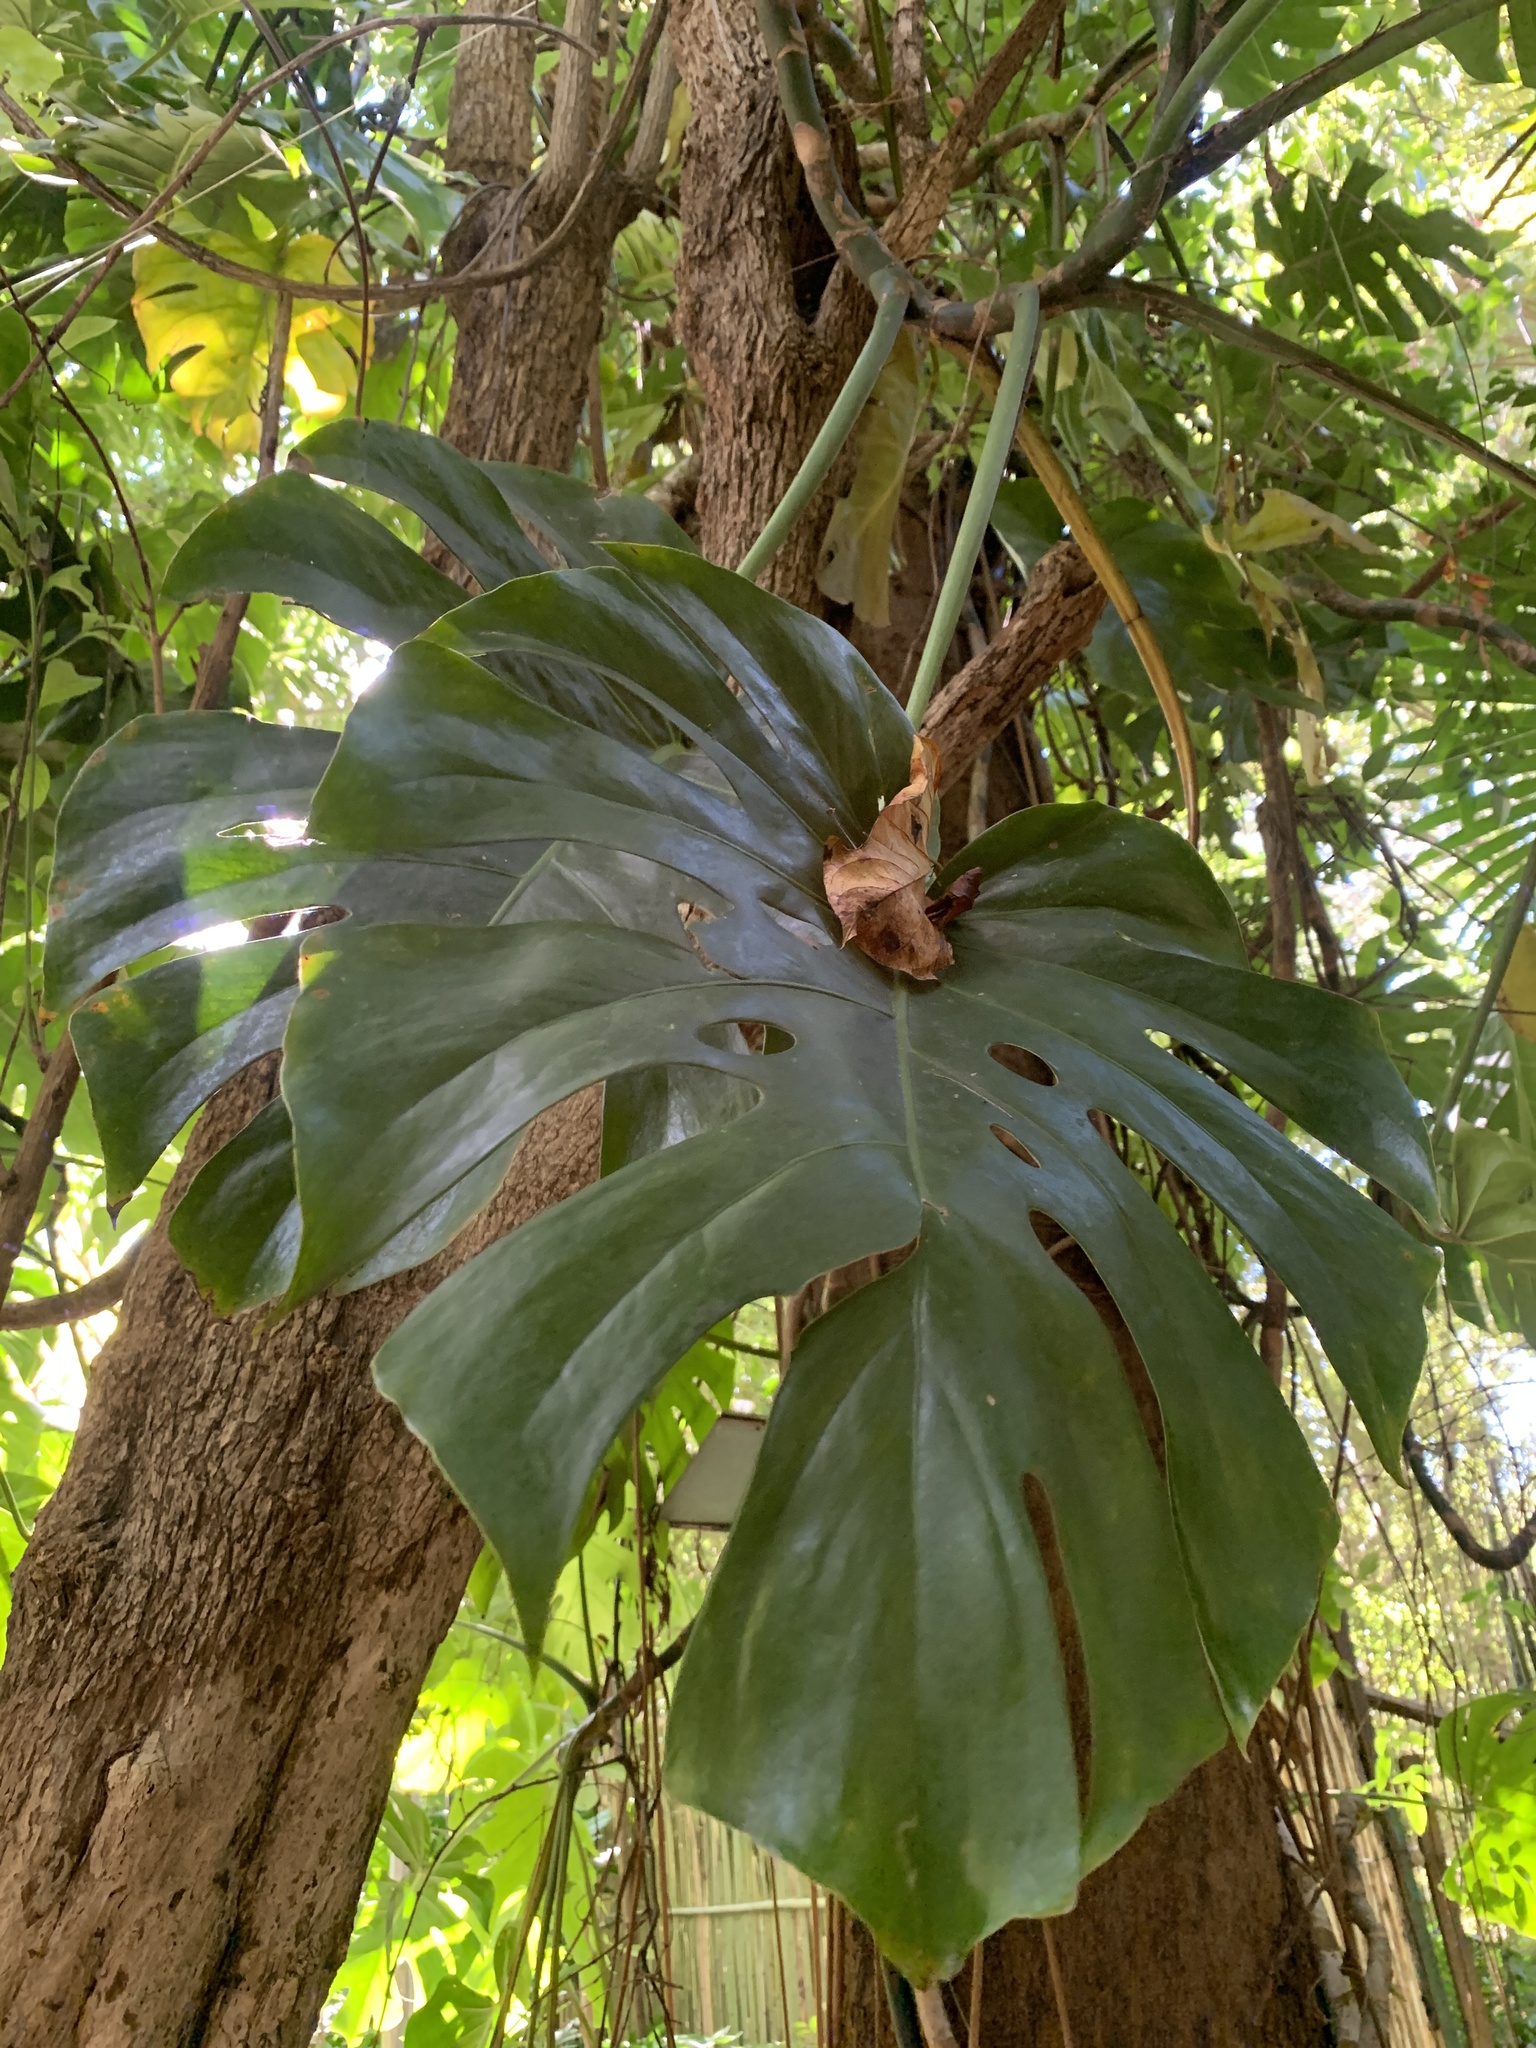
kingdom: Plantae
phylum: Tracheophyta
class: Liliopsida
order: Alismatales
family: Araceae
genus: Monstera
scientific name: Monstera deliciosa
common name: Cut-leaf-philodendron
